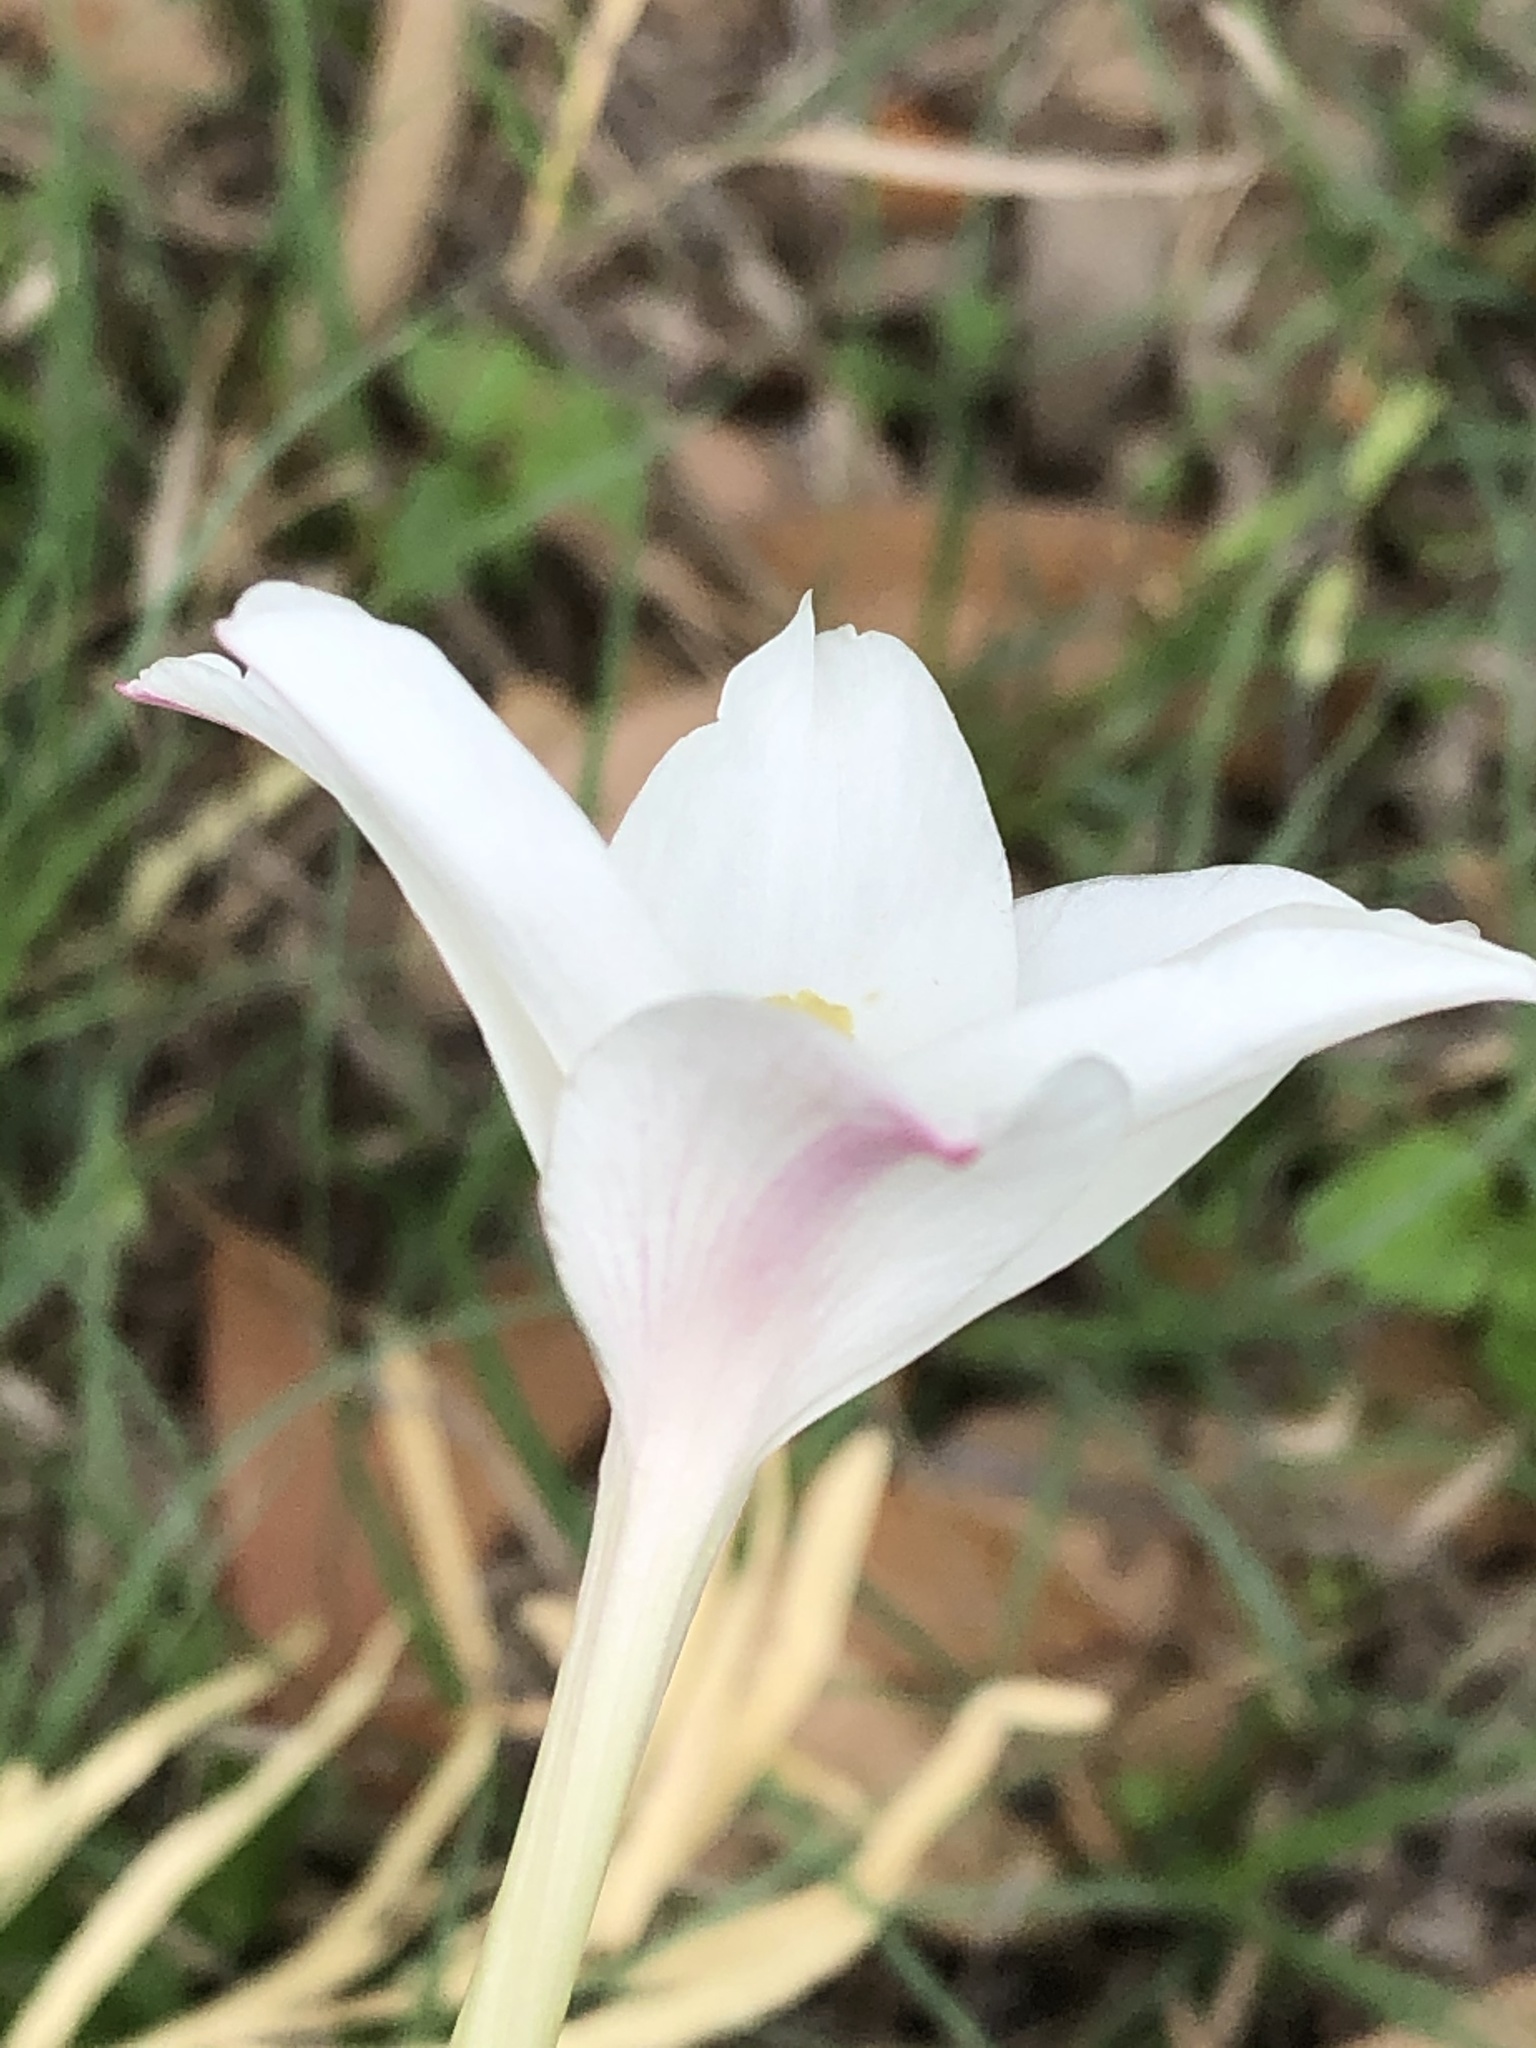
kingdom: Plantae
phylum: Tracheophyta
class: Liliopsida
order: Asparagales
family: Amaryllidaceae
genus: Zephyranthes
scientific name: Zephyranthes chlorosolen
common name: Evening rain-lily
